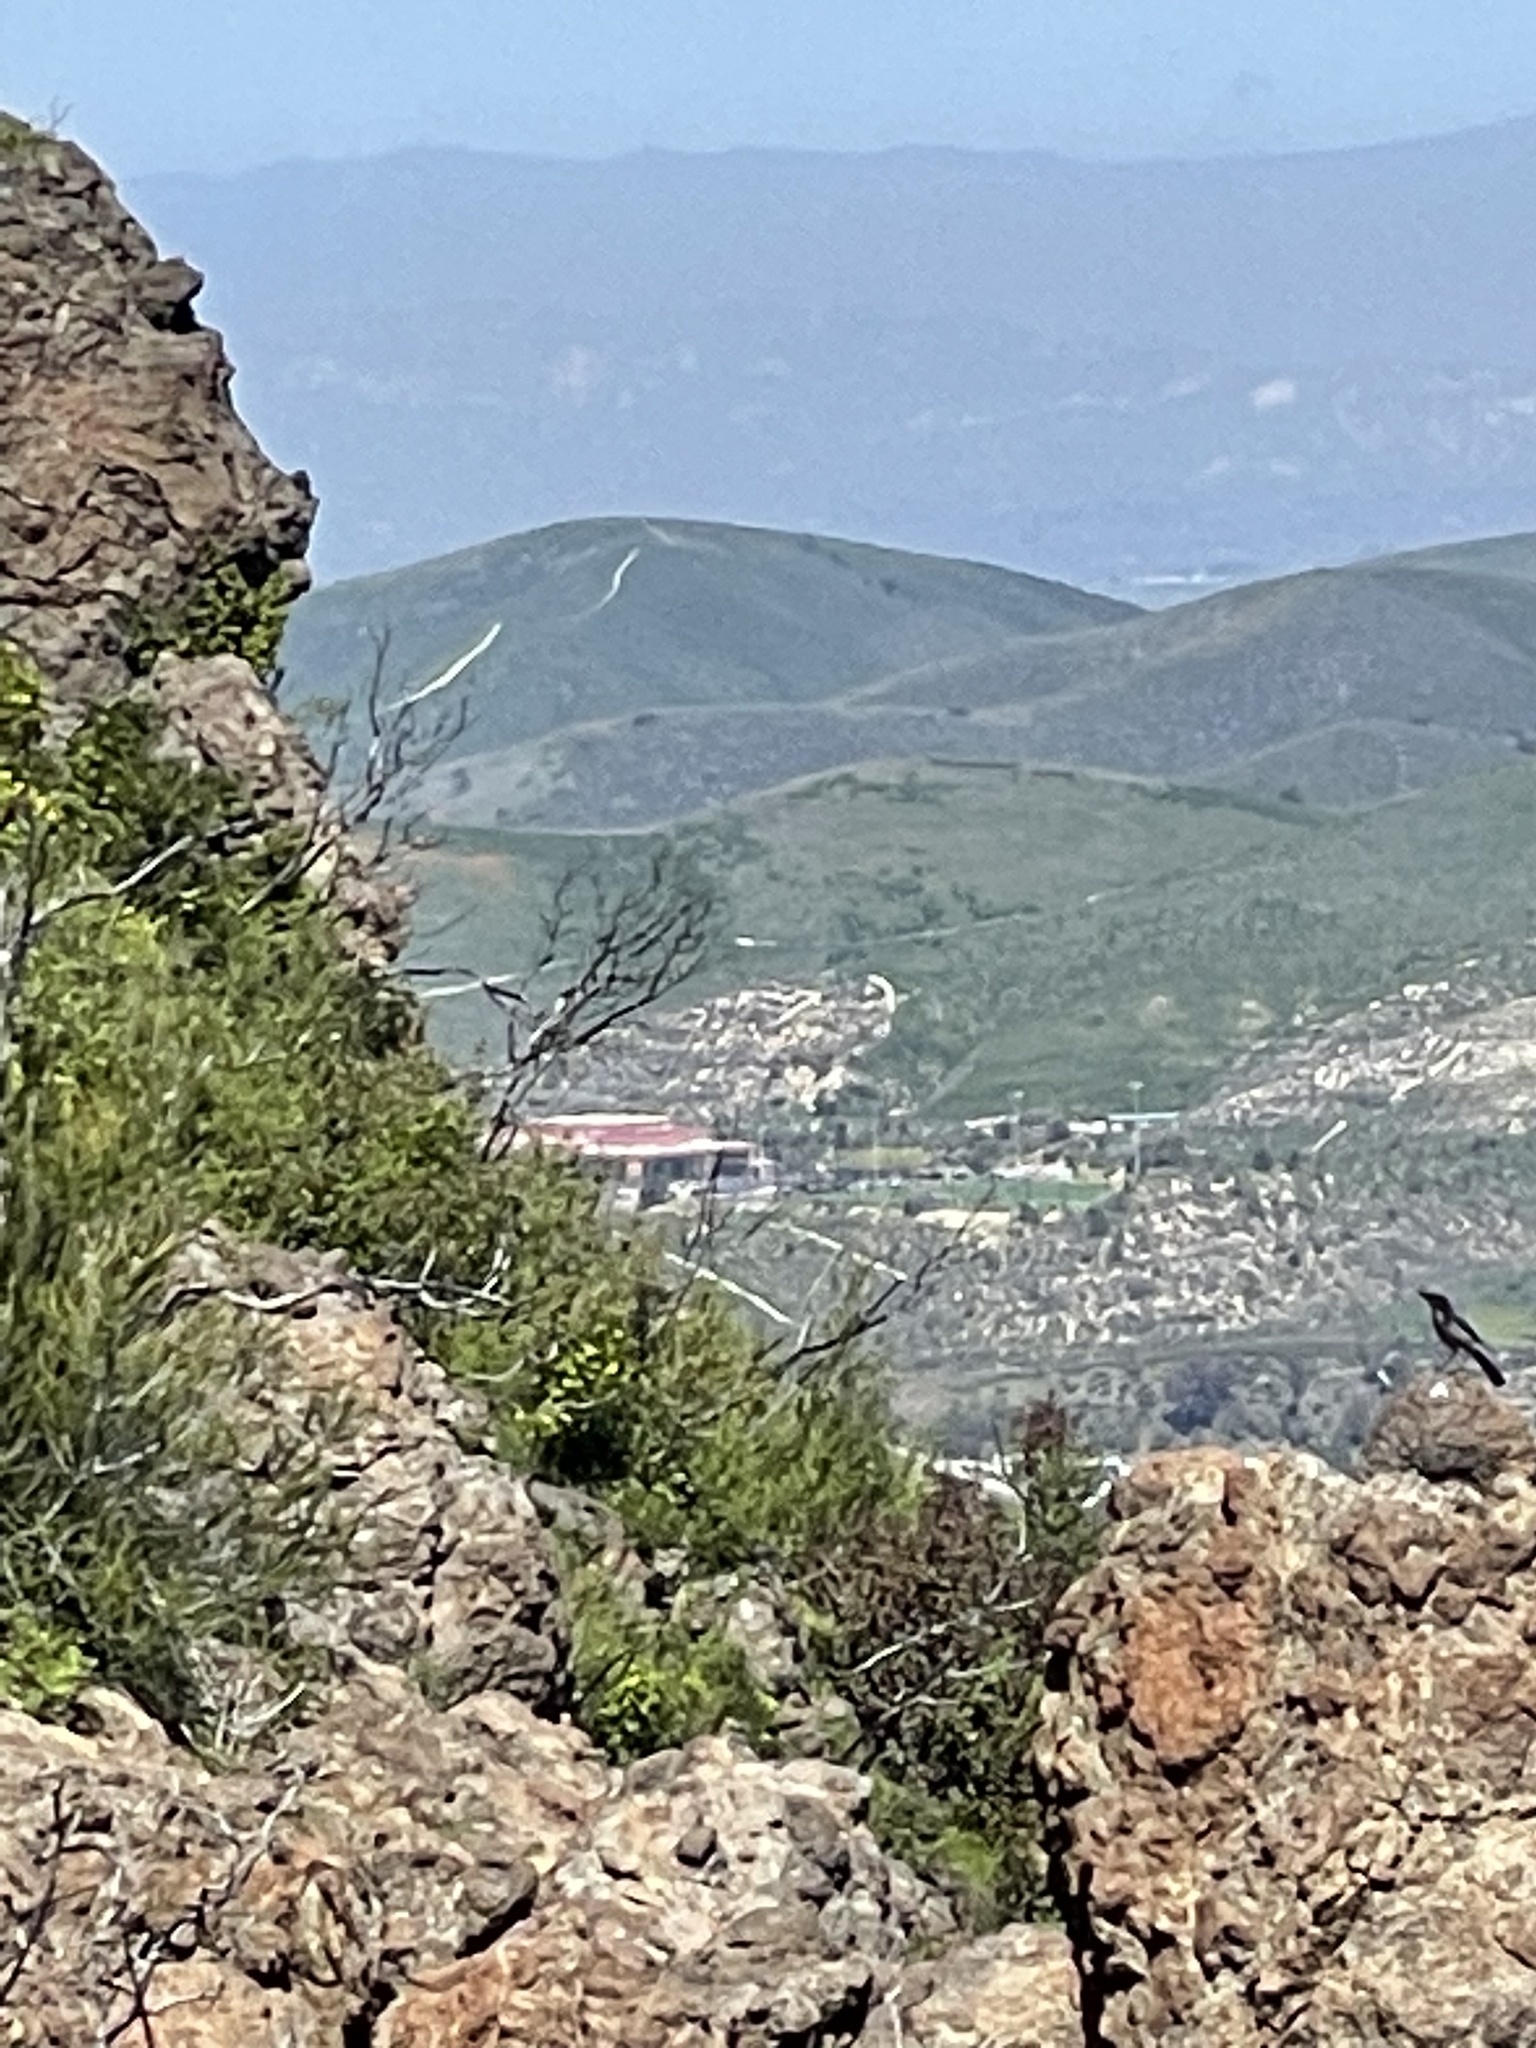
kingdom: Animalia
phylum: Chordata
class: Aves
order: Passeriformes
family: Corvidae
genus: Aphelocoma
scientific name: Aphelocoma californica
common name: California scrub-jay
